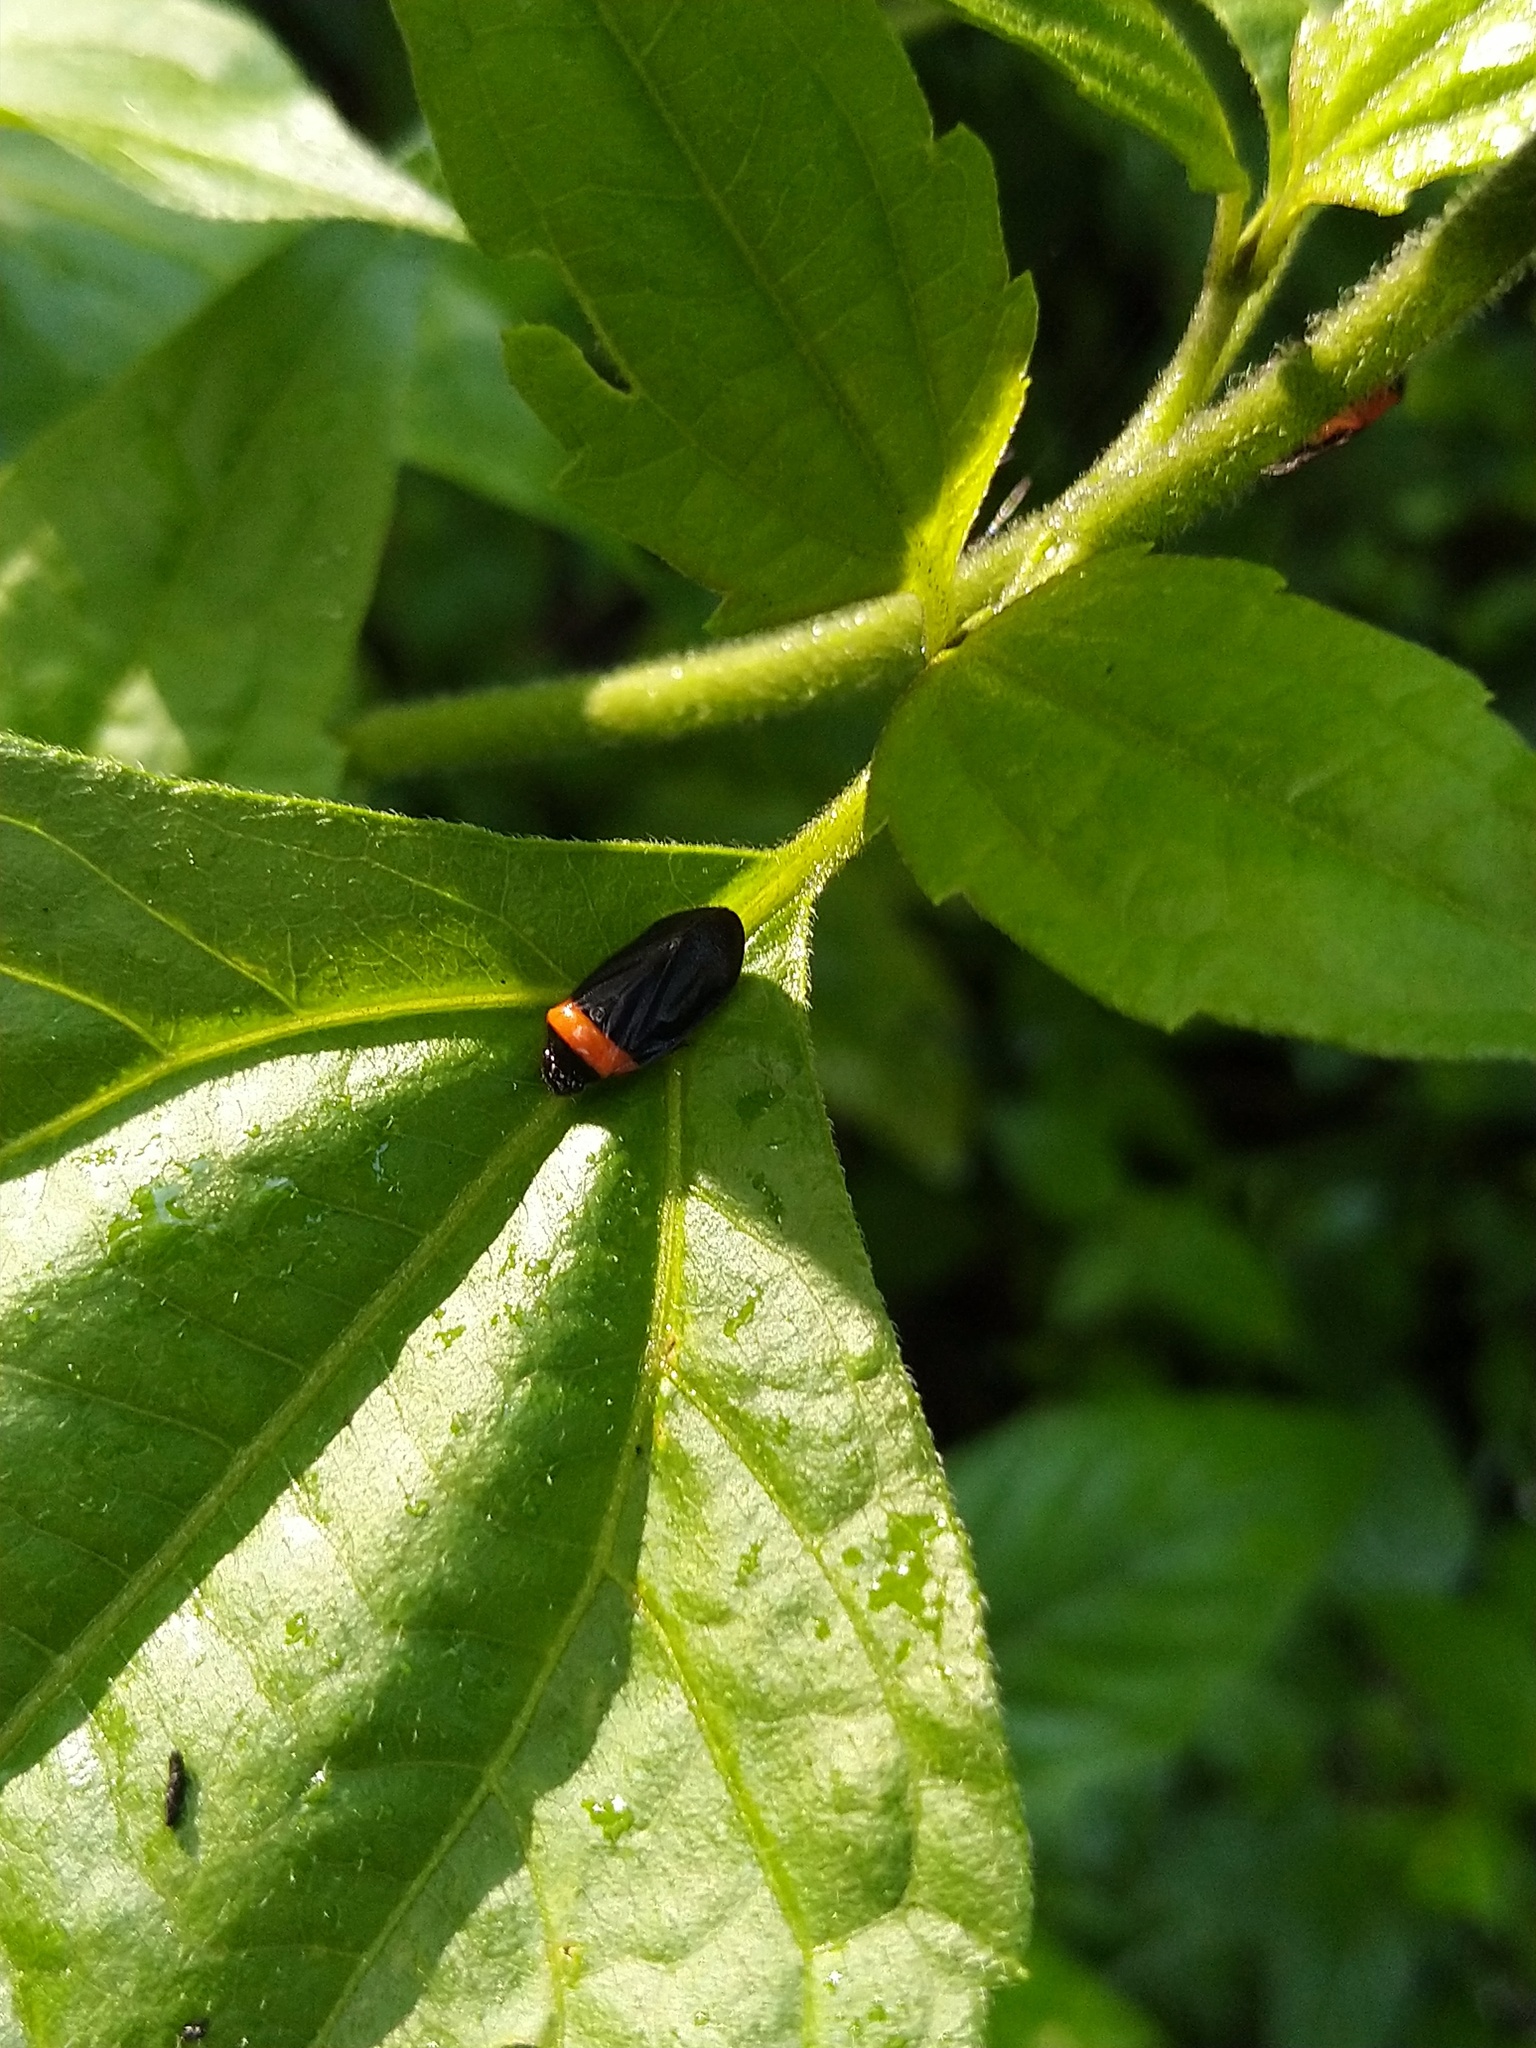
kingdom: Animalia
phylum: Arthropoda
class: Insecta
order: Hemiptera
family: Cercopidae
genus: Phymatostetha
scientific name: Phymatostetha deschampsi
